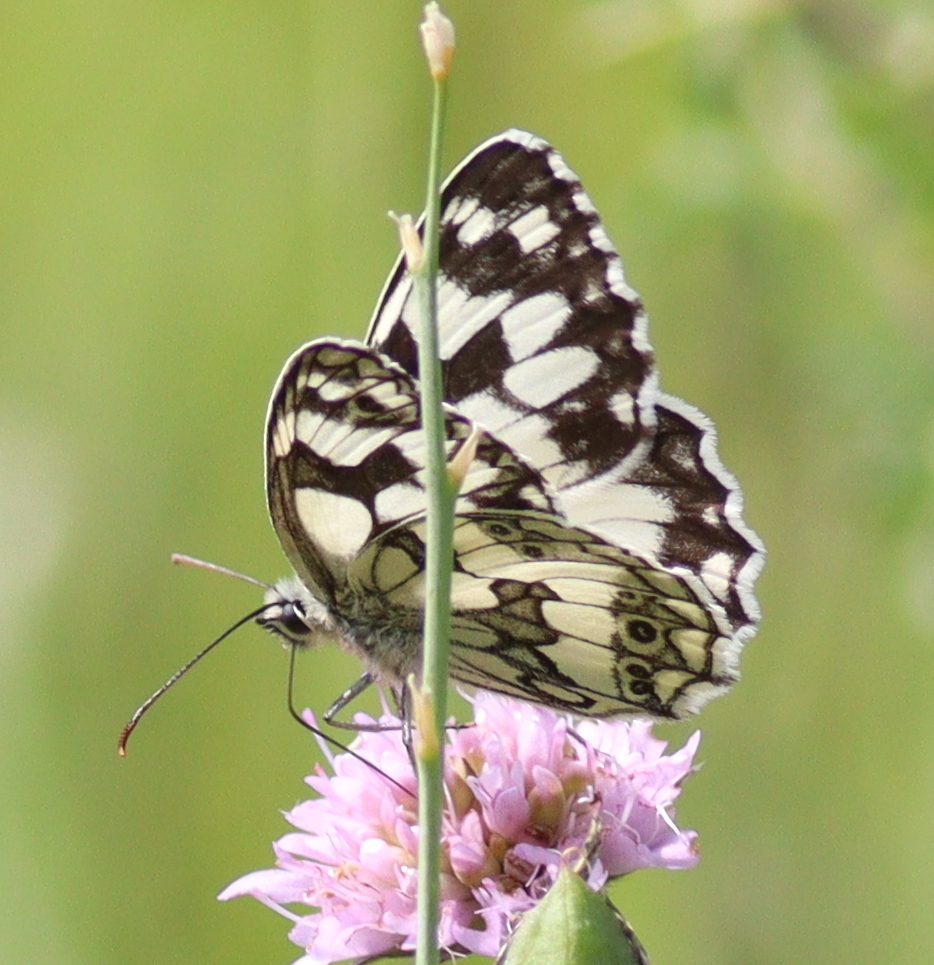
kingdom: Animalia
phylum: Arthropoda
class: Insecta
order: Lepidoptera
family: Nymphalidae
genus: Melanargia
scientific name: Melanargia galathea
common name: Marbled white
